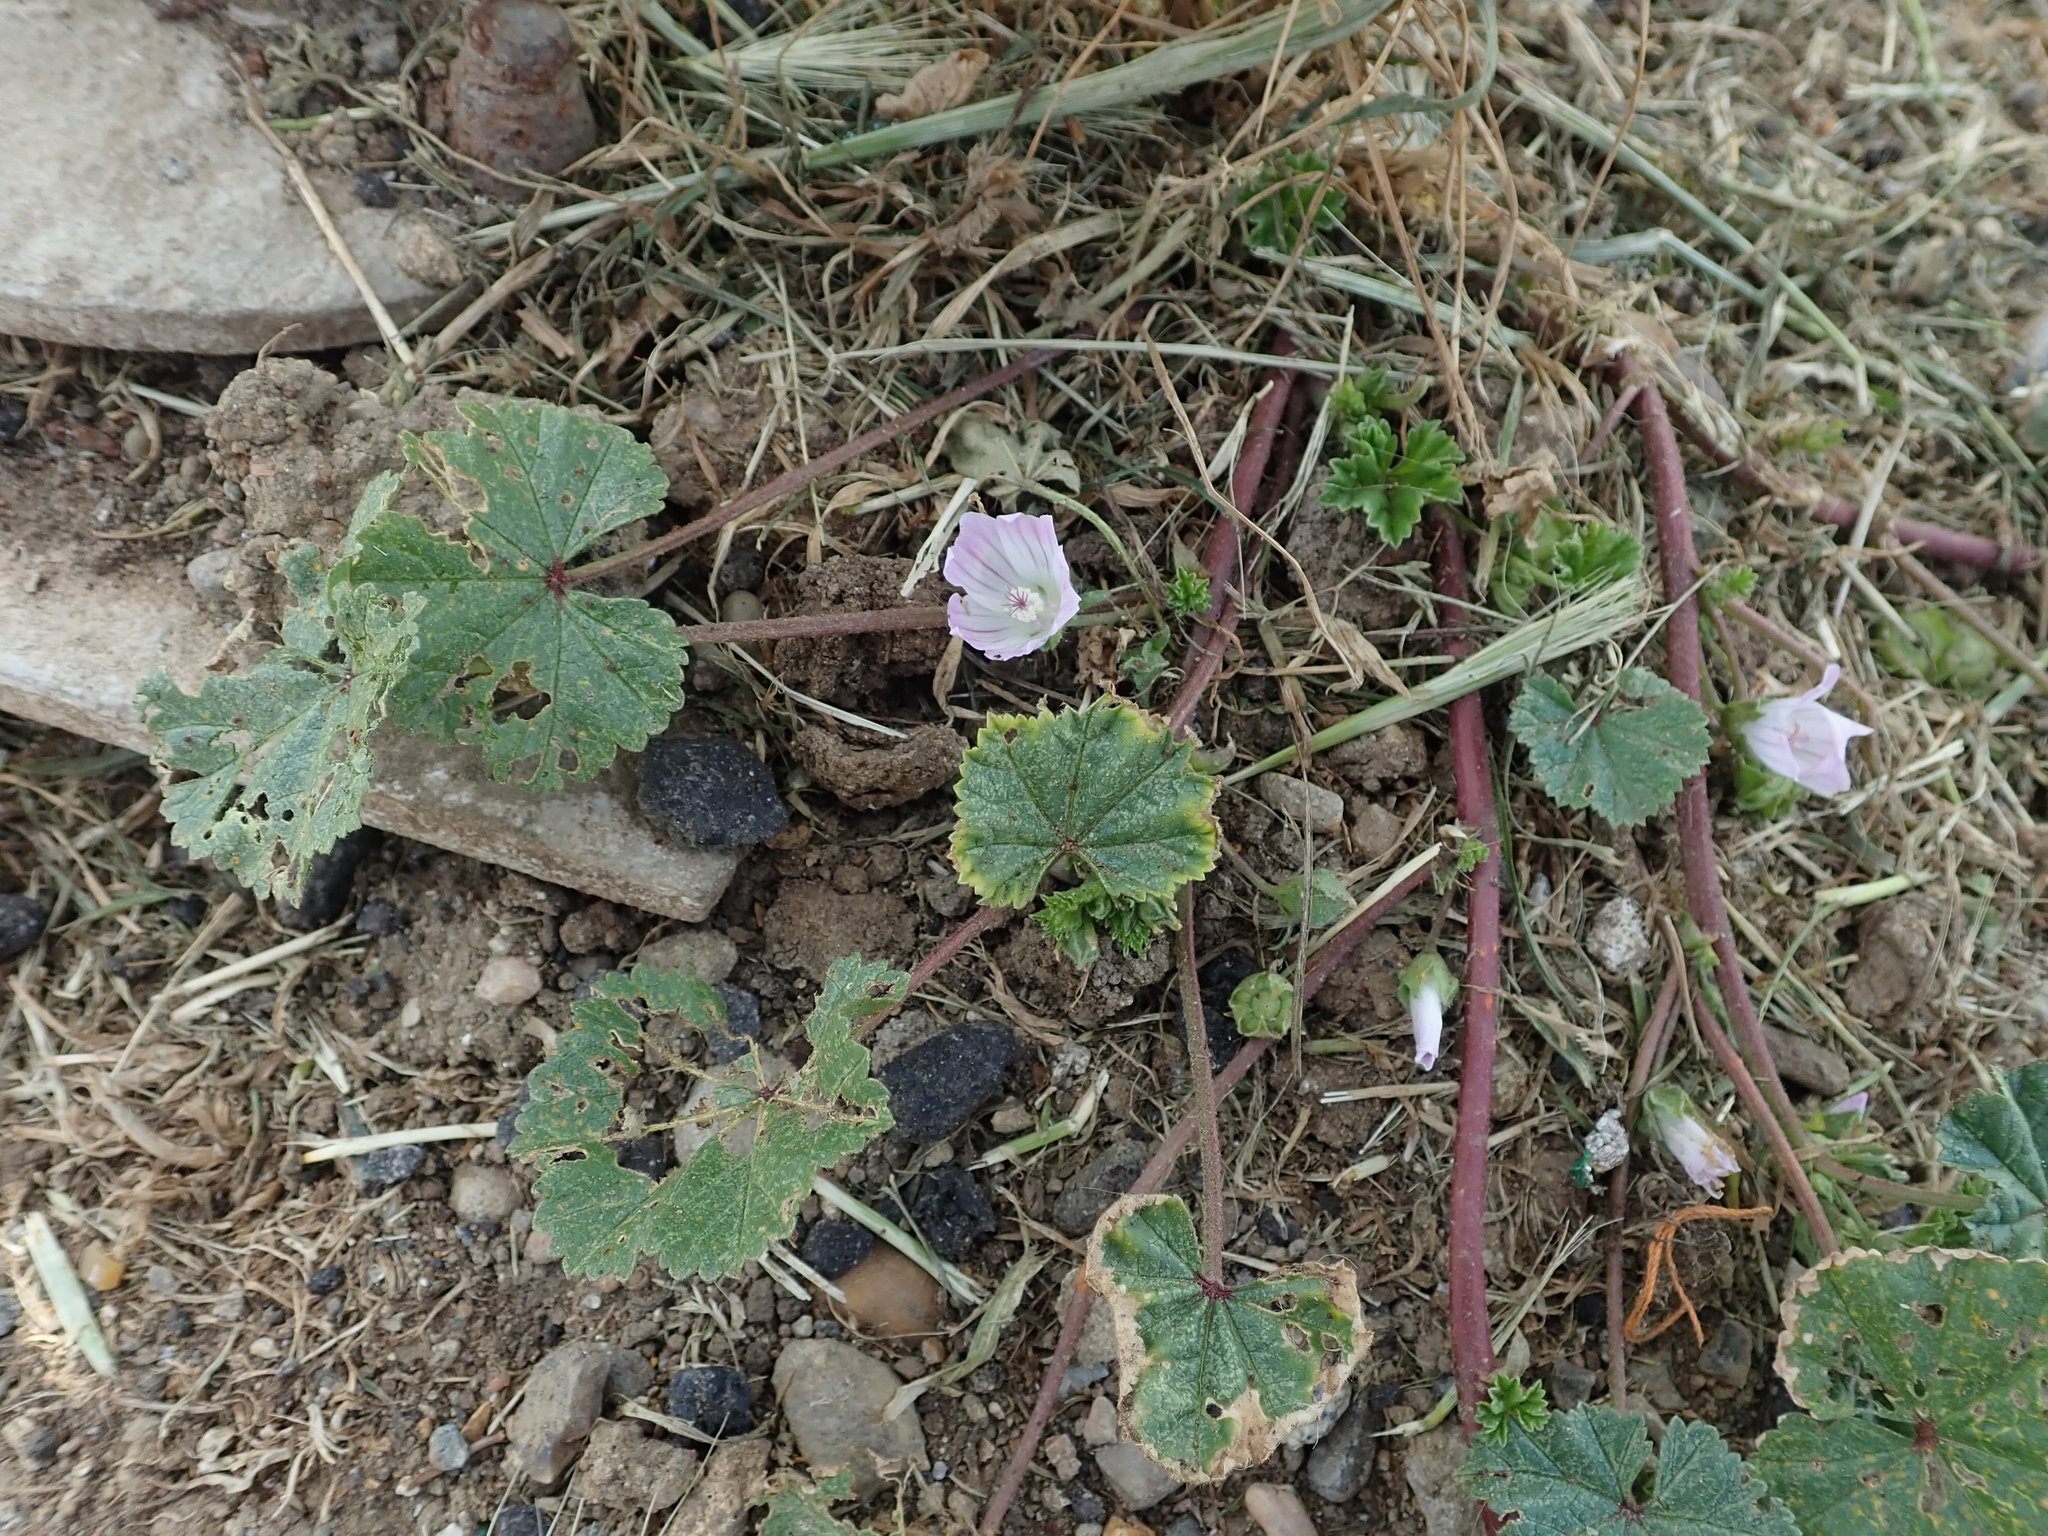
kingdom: Plantae
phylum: Tracheophyta
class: Magnoliopsida
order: Malvales
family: Malvaceae
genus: Malva
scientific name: Malva neglecta
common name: Common mallow
